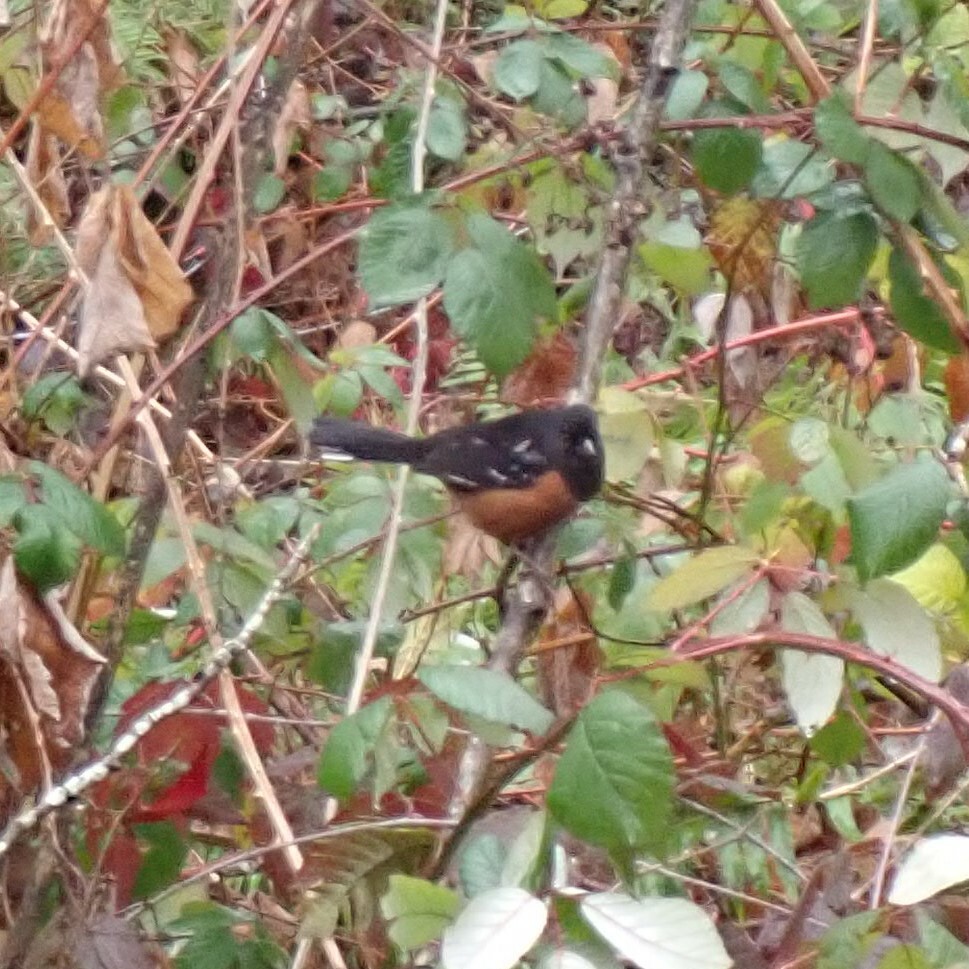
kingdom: Animalia
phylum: Chordata
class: Aves
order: Passeriformes
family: Passerellidae
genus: Pipilo
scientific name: Pipilo maculatus
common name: Spotted towhee
